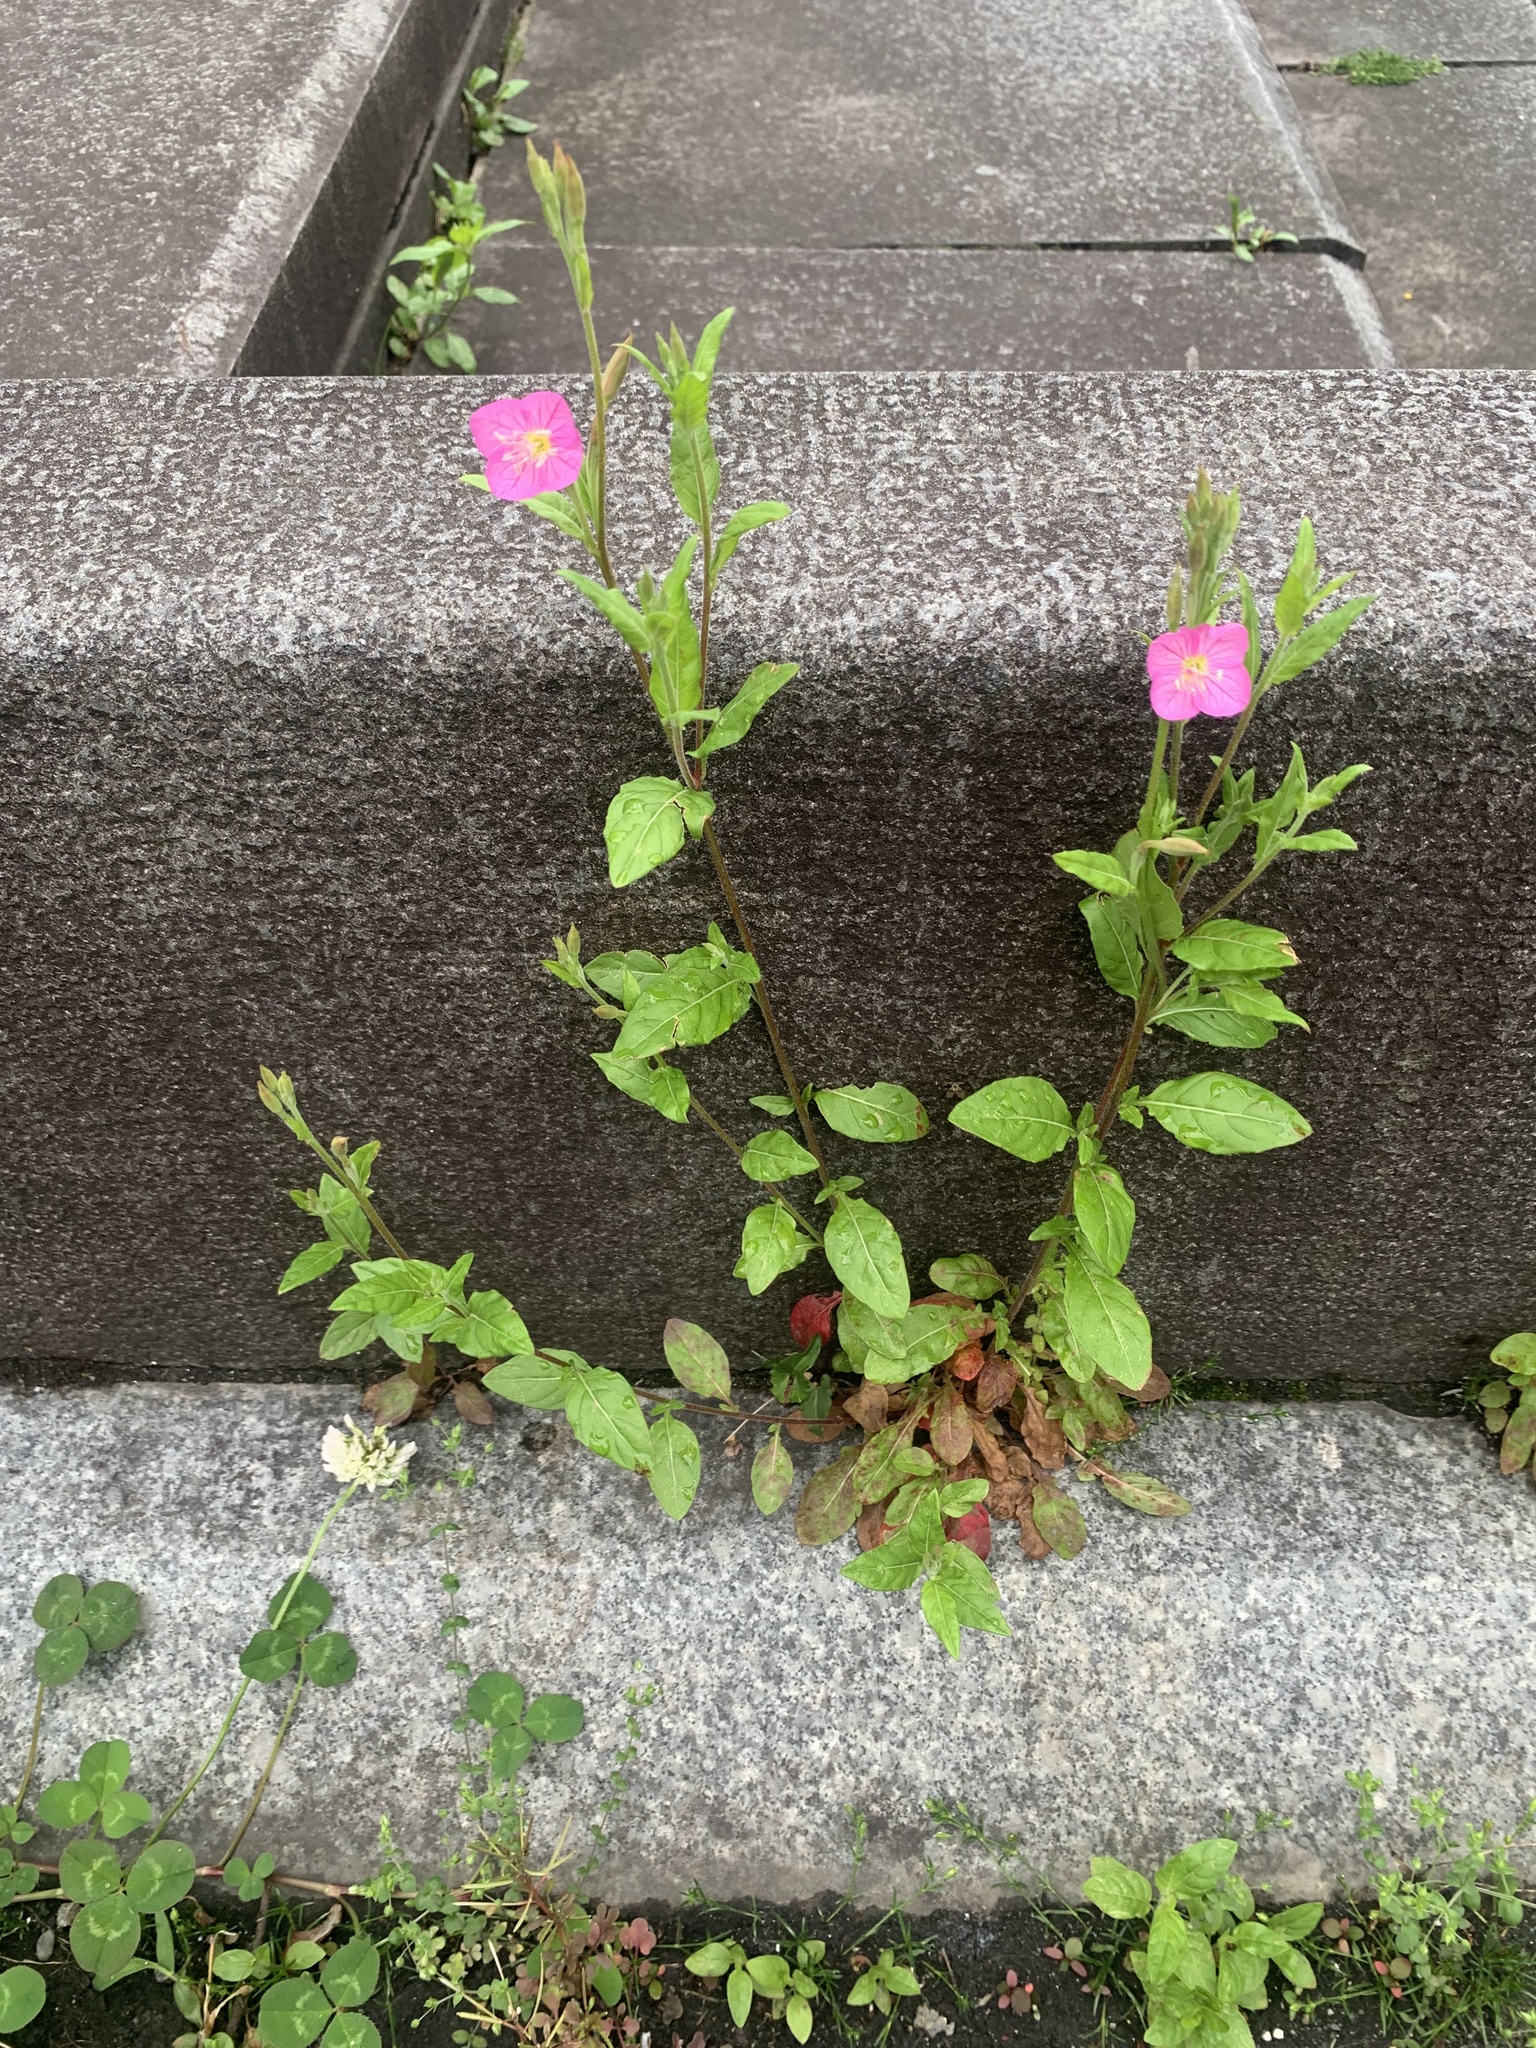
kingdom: Plantae
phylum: Tracheophyta
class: Magnoliopsida
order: Myrtales
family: Onagraceae
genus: Oenothera
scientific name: Oenothera rosea
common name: Rosy evening-primrose
